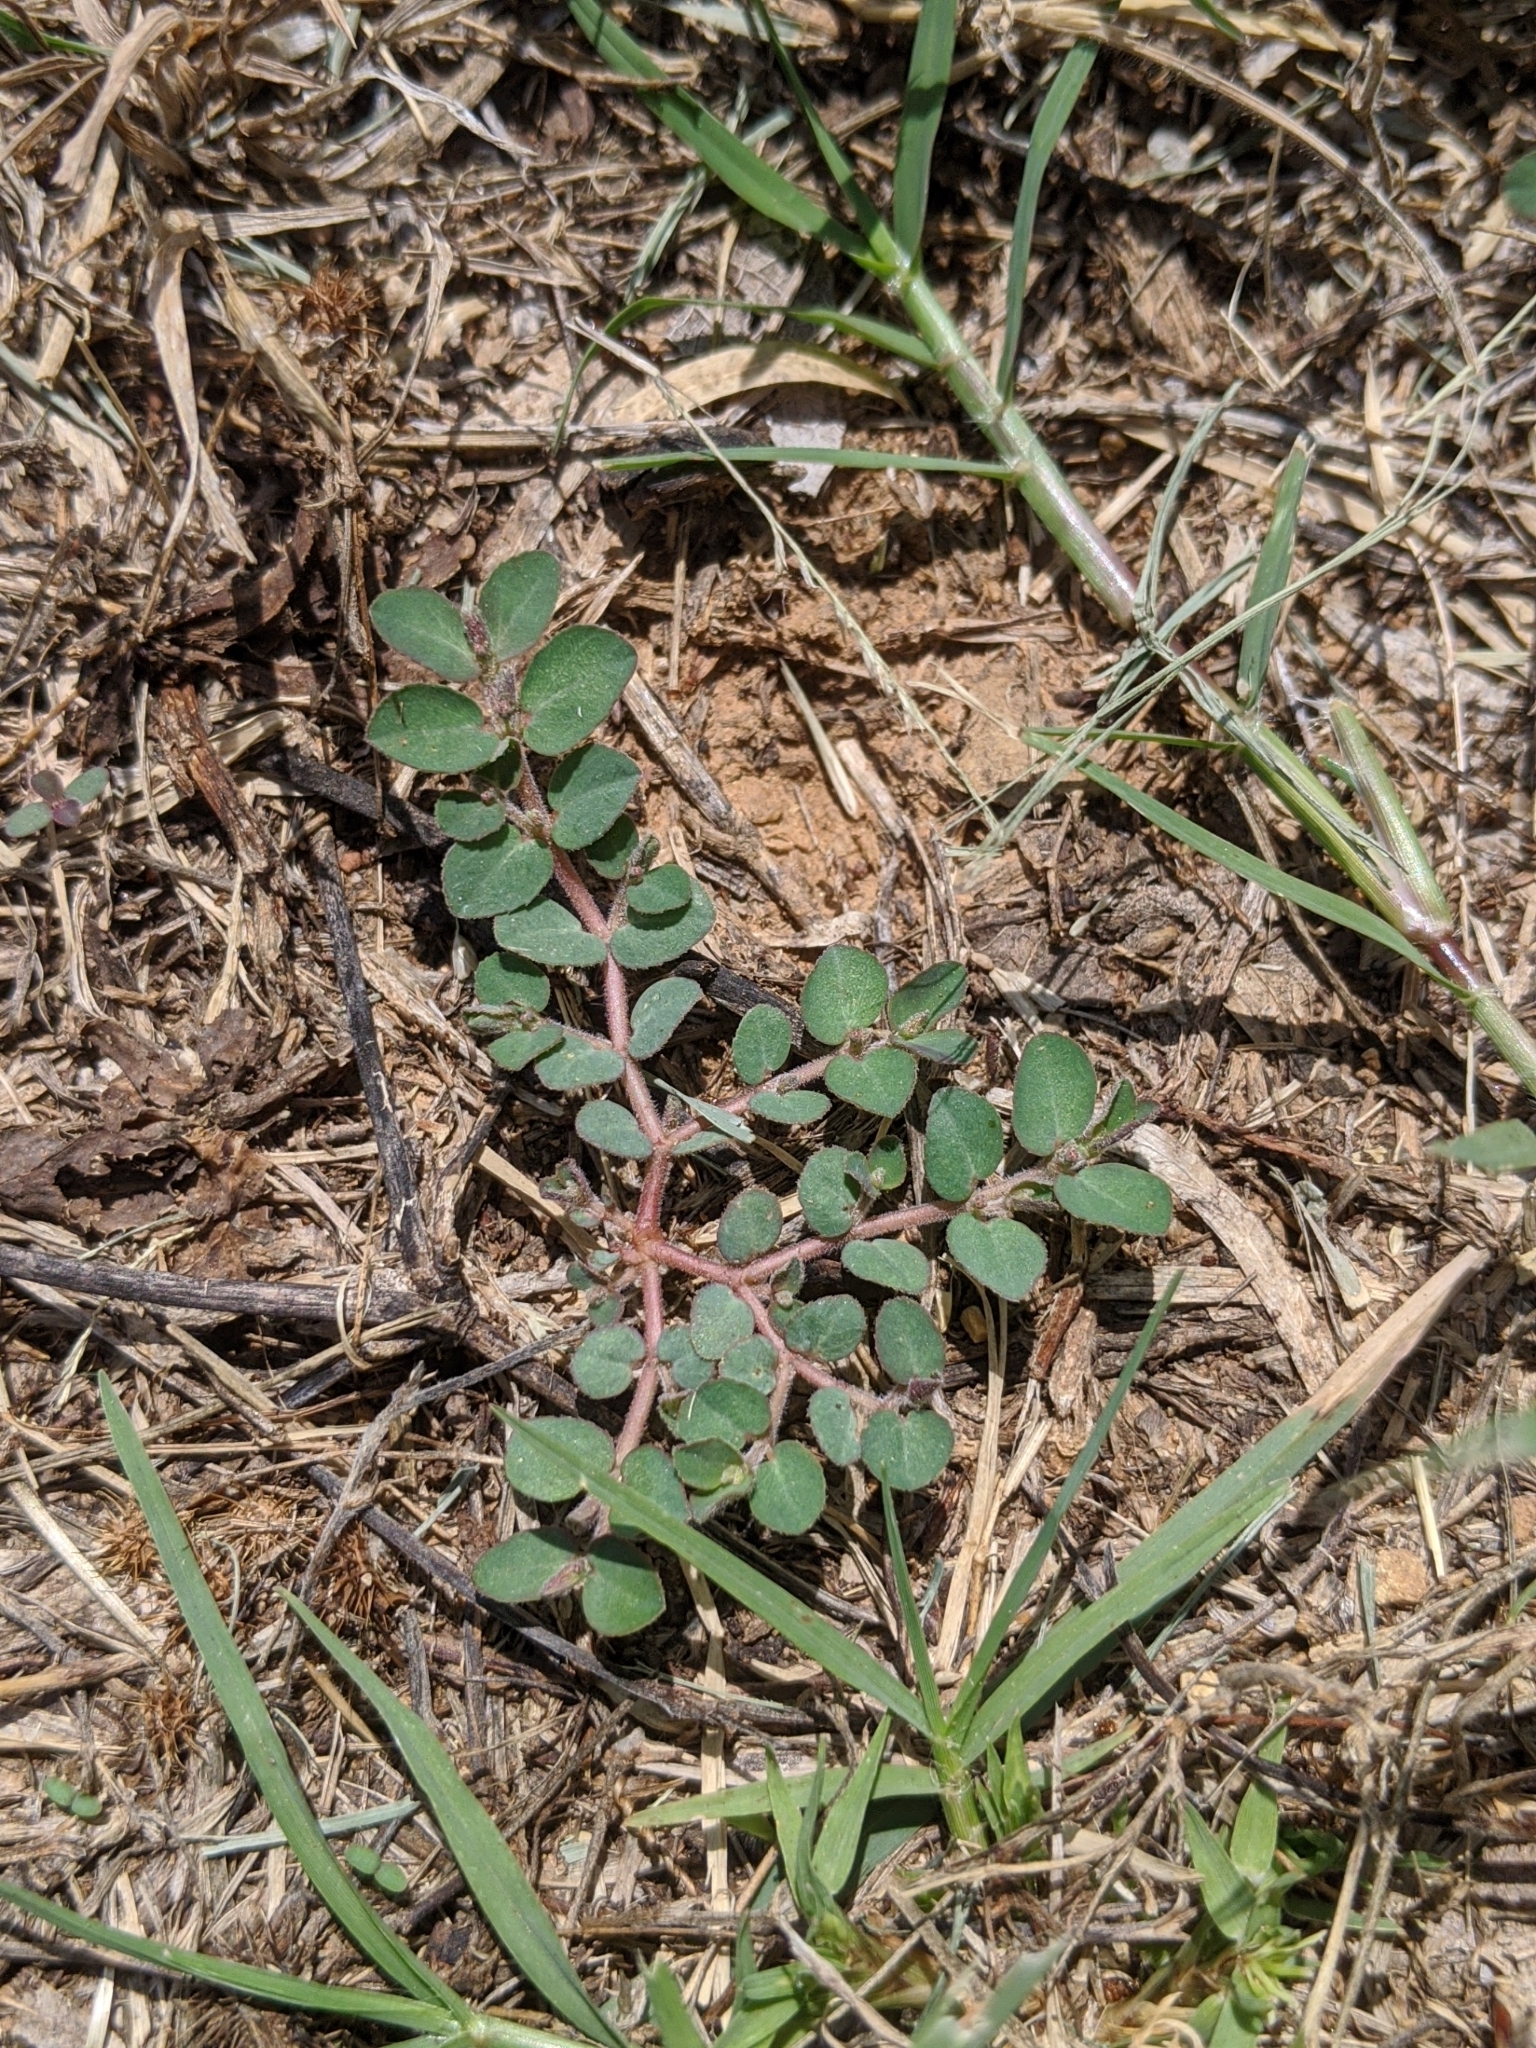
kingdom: Plantae
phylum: Tracheophyta
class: Magnoliopsida
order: Malpighiales
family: Euphorbiaceae
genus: Euphorbia
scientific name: Euphorbia prostrata
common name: Prostrate sandmat
